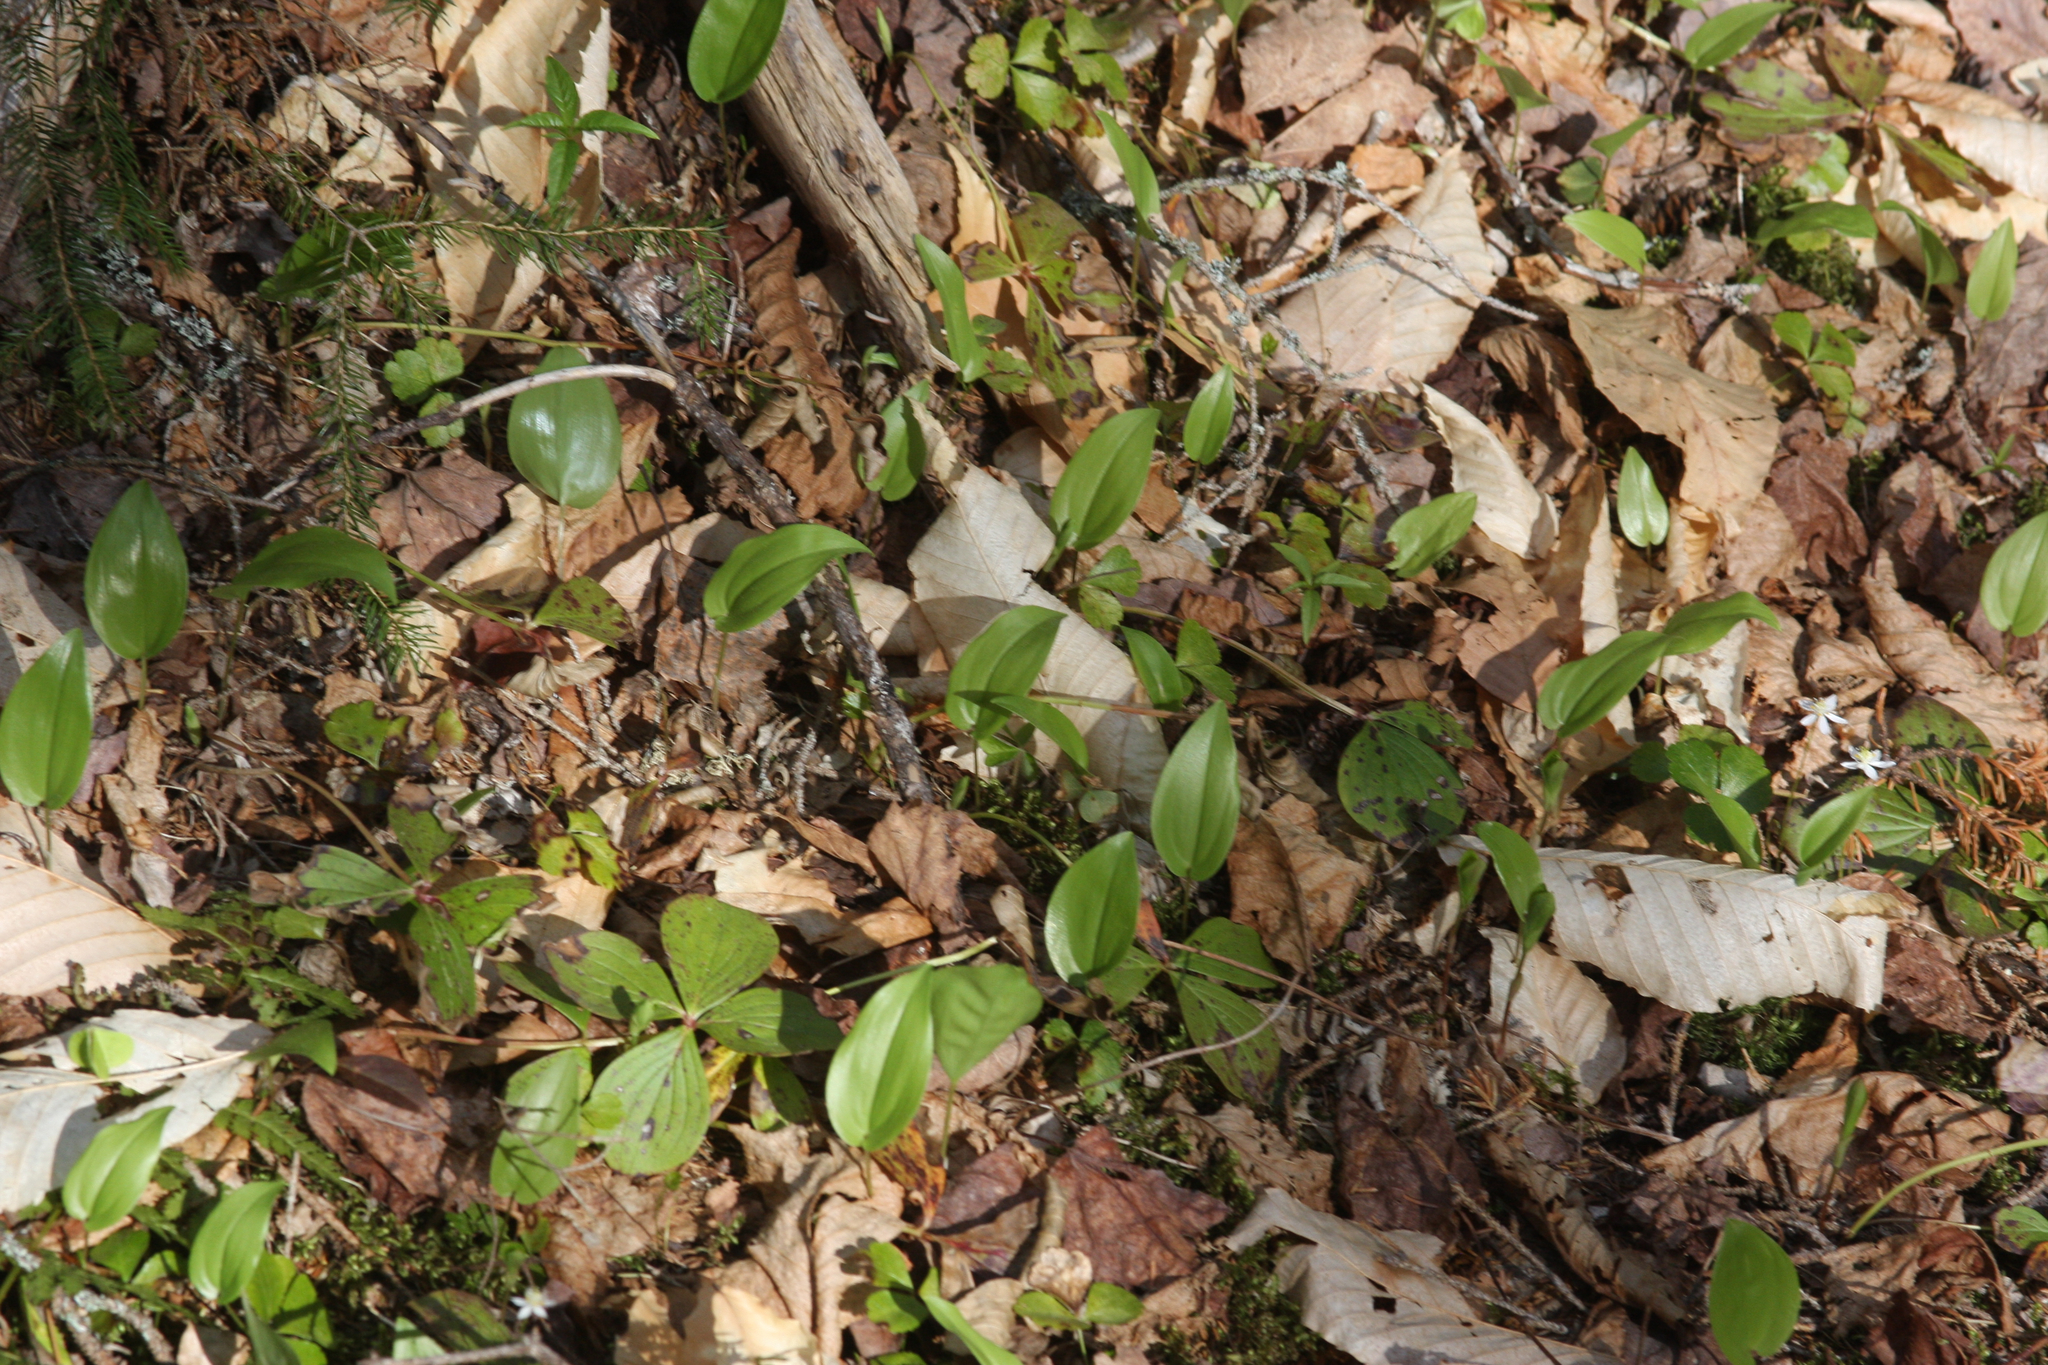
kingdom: Plantae
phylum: Tracheophyta
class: Liliopsida
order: Asparagales
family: Asparagaceae
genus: Maianthemum
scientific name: Maianthemum canadense
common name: False lily-of-the-valley
